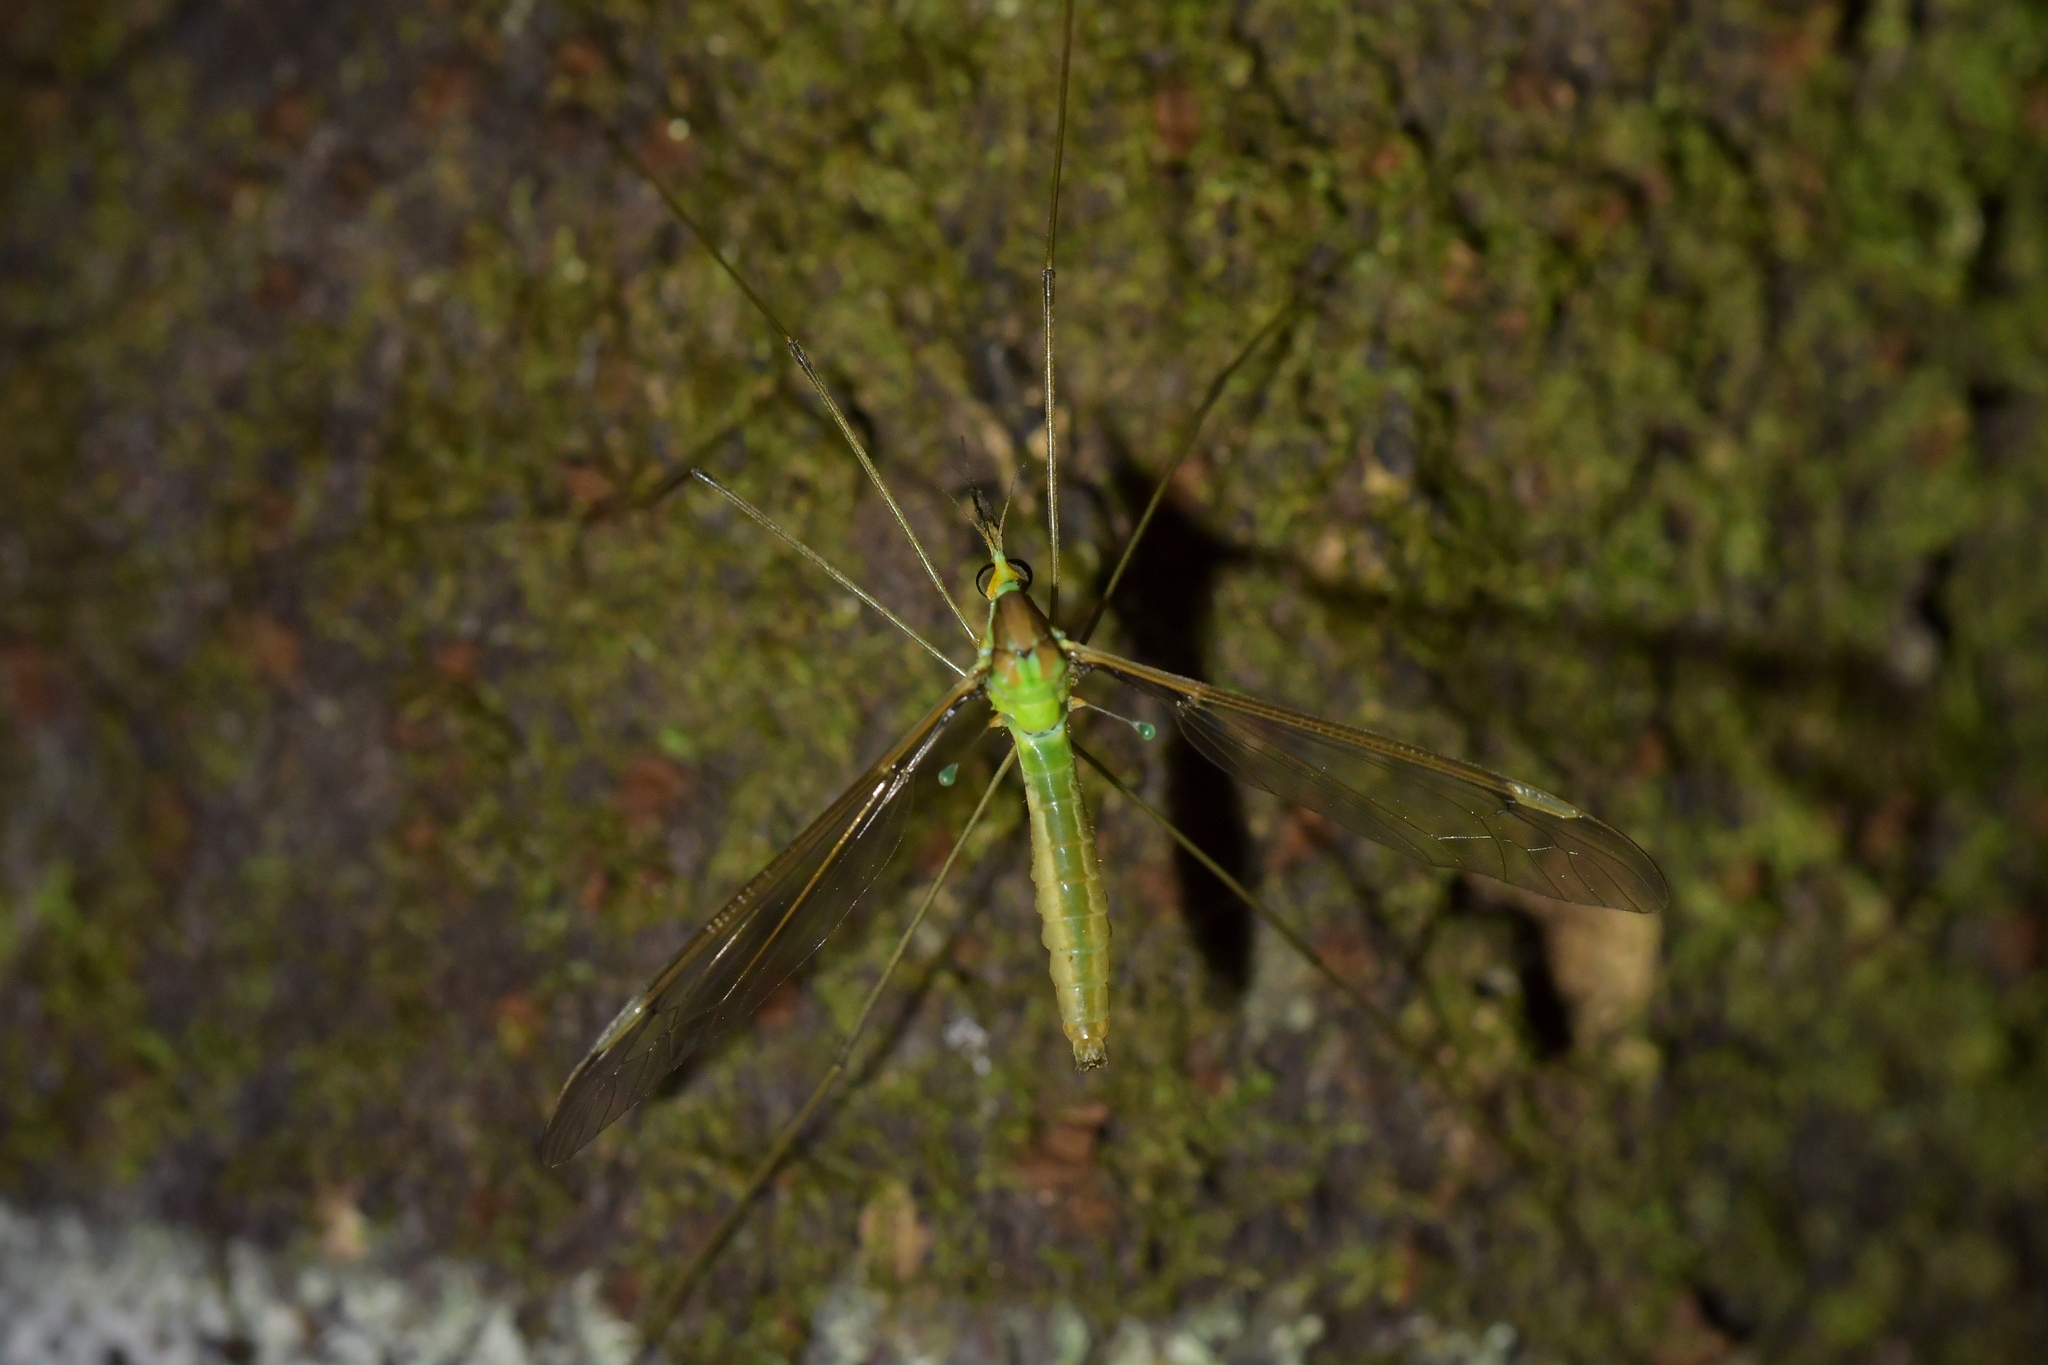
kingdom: Animalia
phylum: Arthropoda
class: Insecta
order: Diptera
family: Tipulidae
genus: Leptotarsus
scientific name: Leptotarsus albistigma
